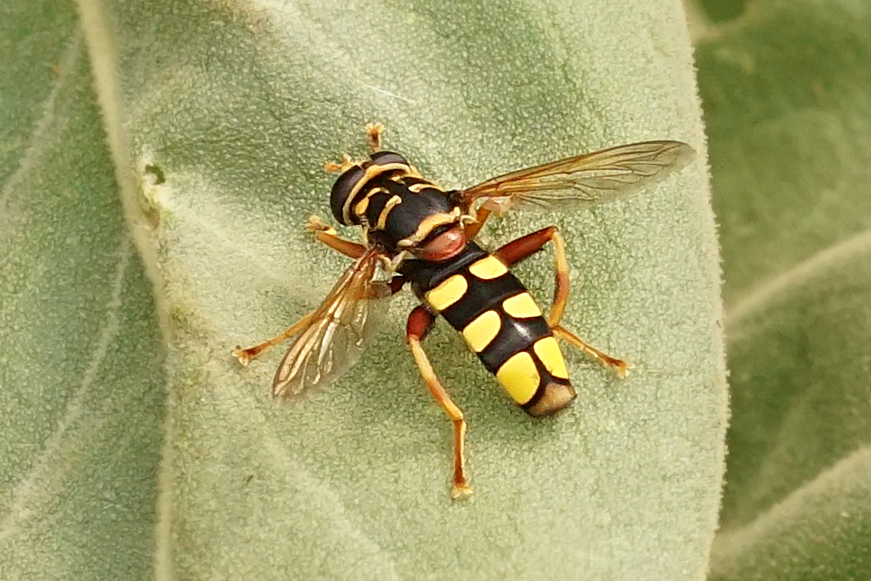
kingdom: Animalia
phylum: Arthropoda
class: Insecta
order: Diptera
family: Syrphidae
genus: Milesia
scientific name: Milesia semiluctifera
